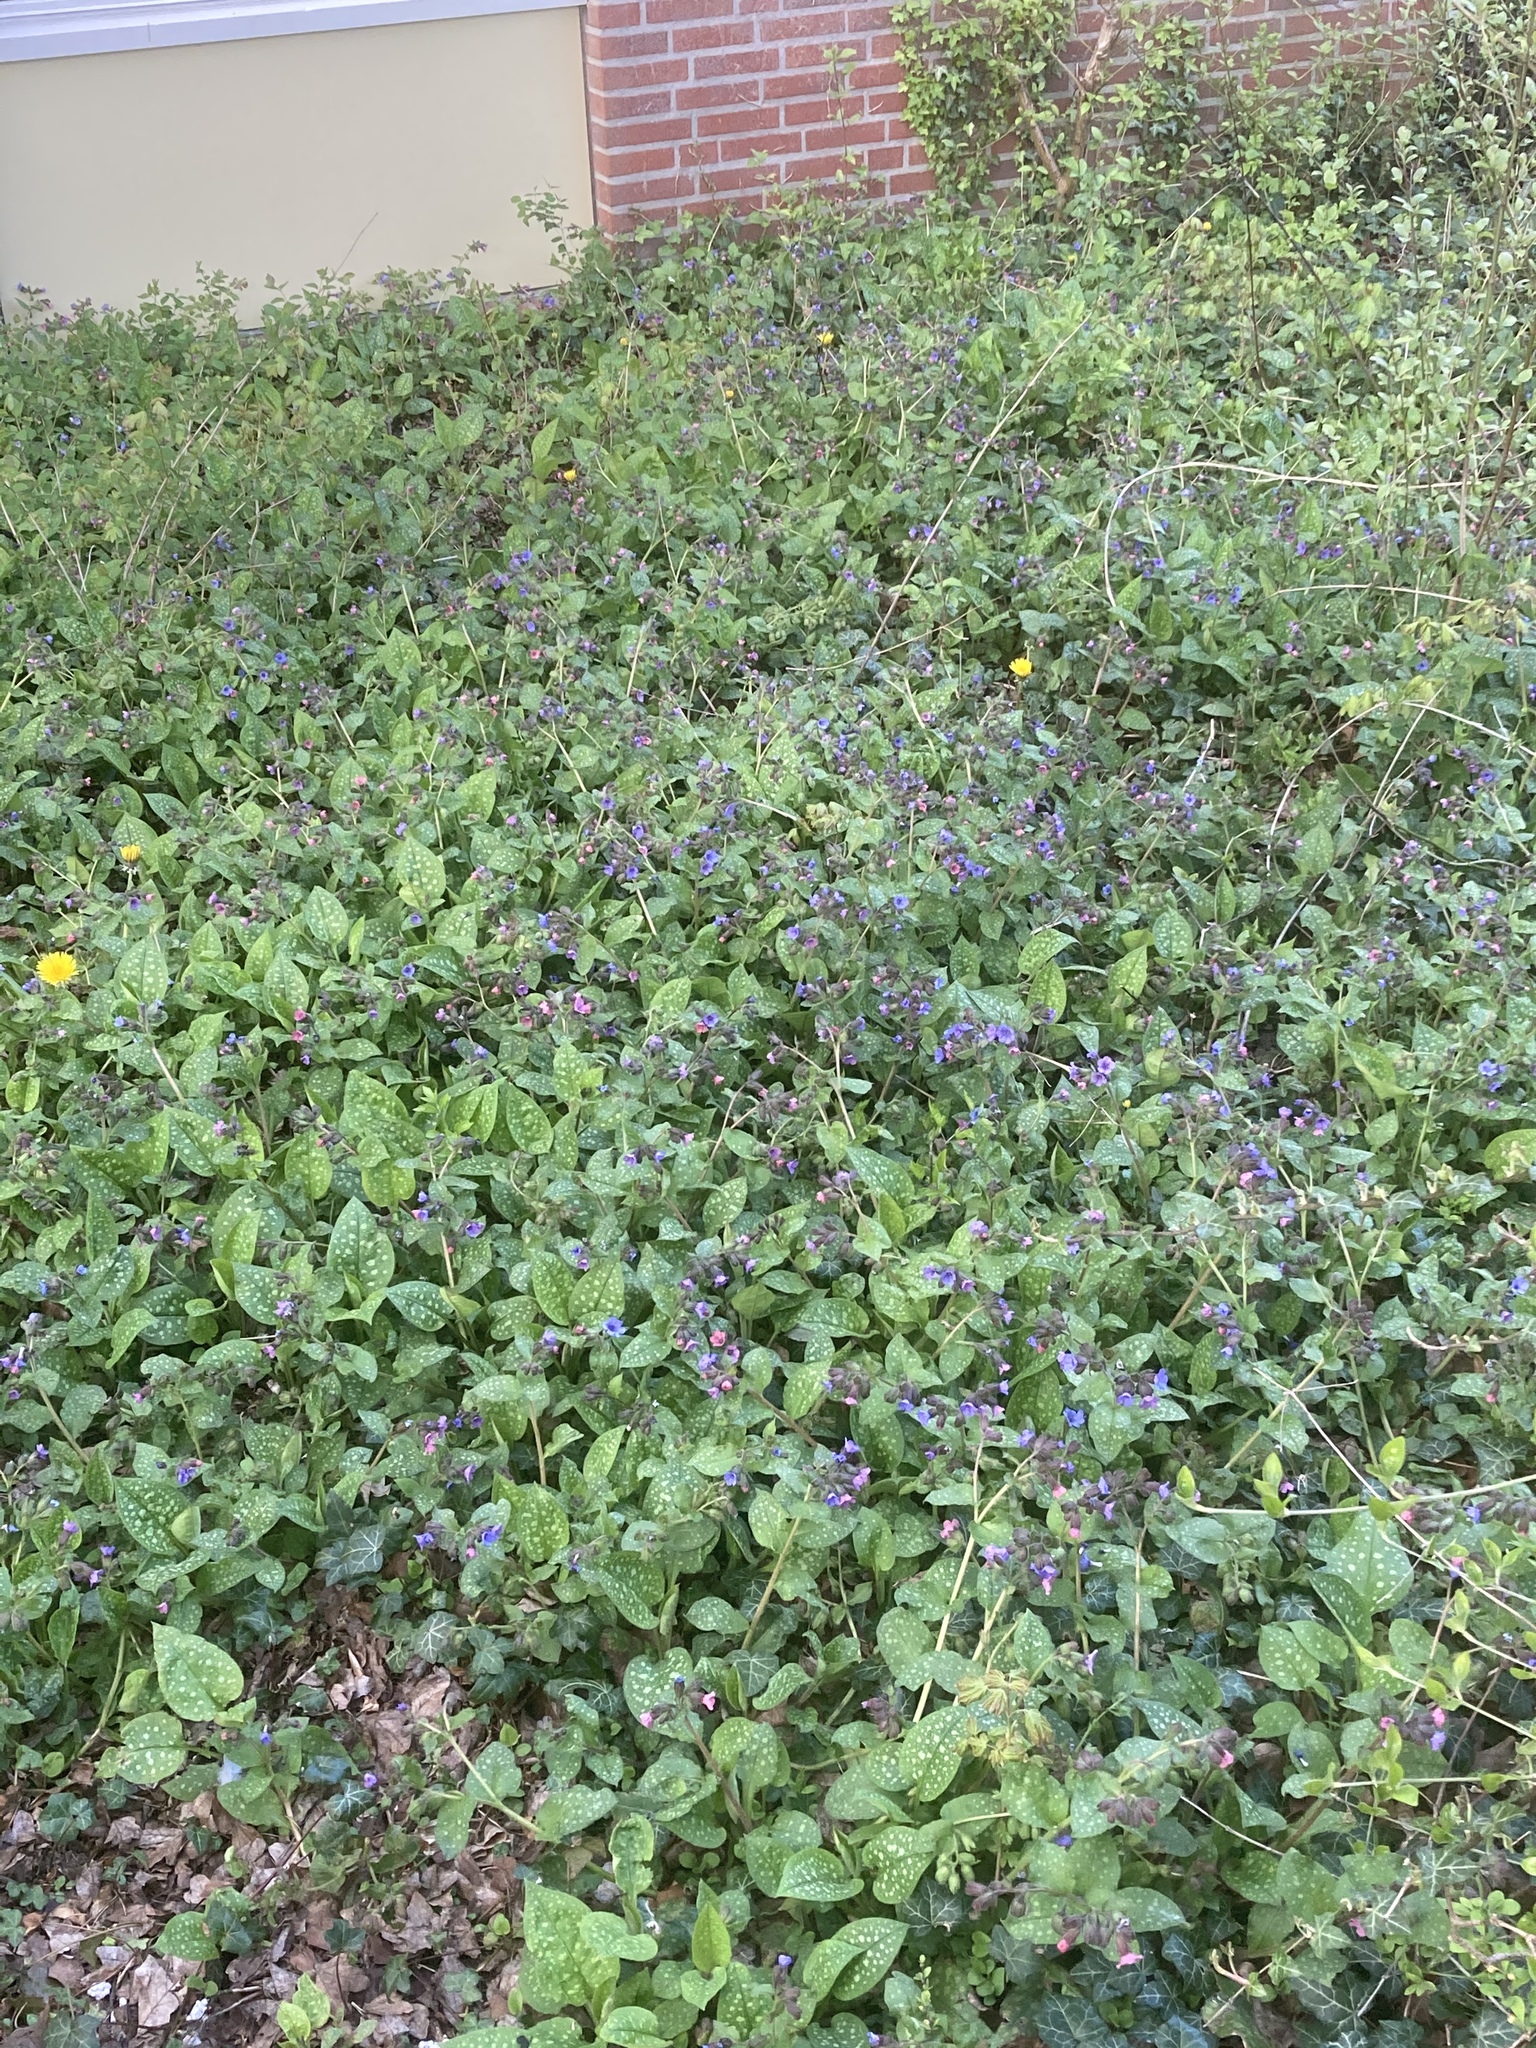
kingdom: Plantae
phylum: Tracheophyta
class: Magnoliopsida
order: Boraginales
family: Boraginaceae
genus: Pulmonaria
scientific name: Pulmonaria officinalis
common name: Lungwort
